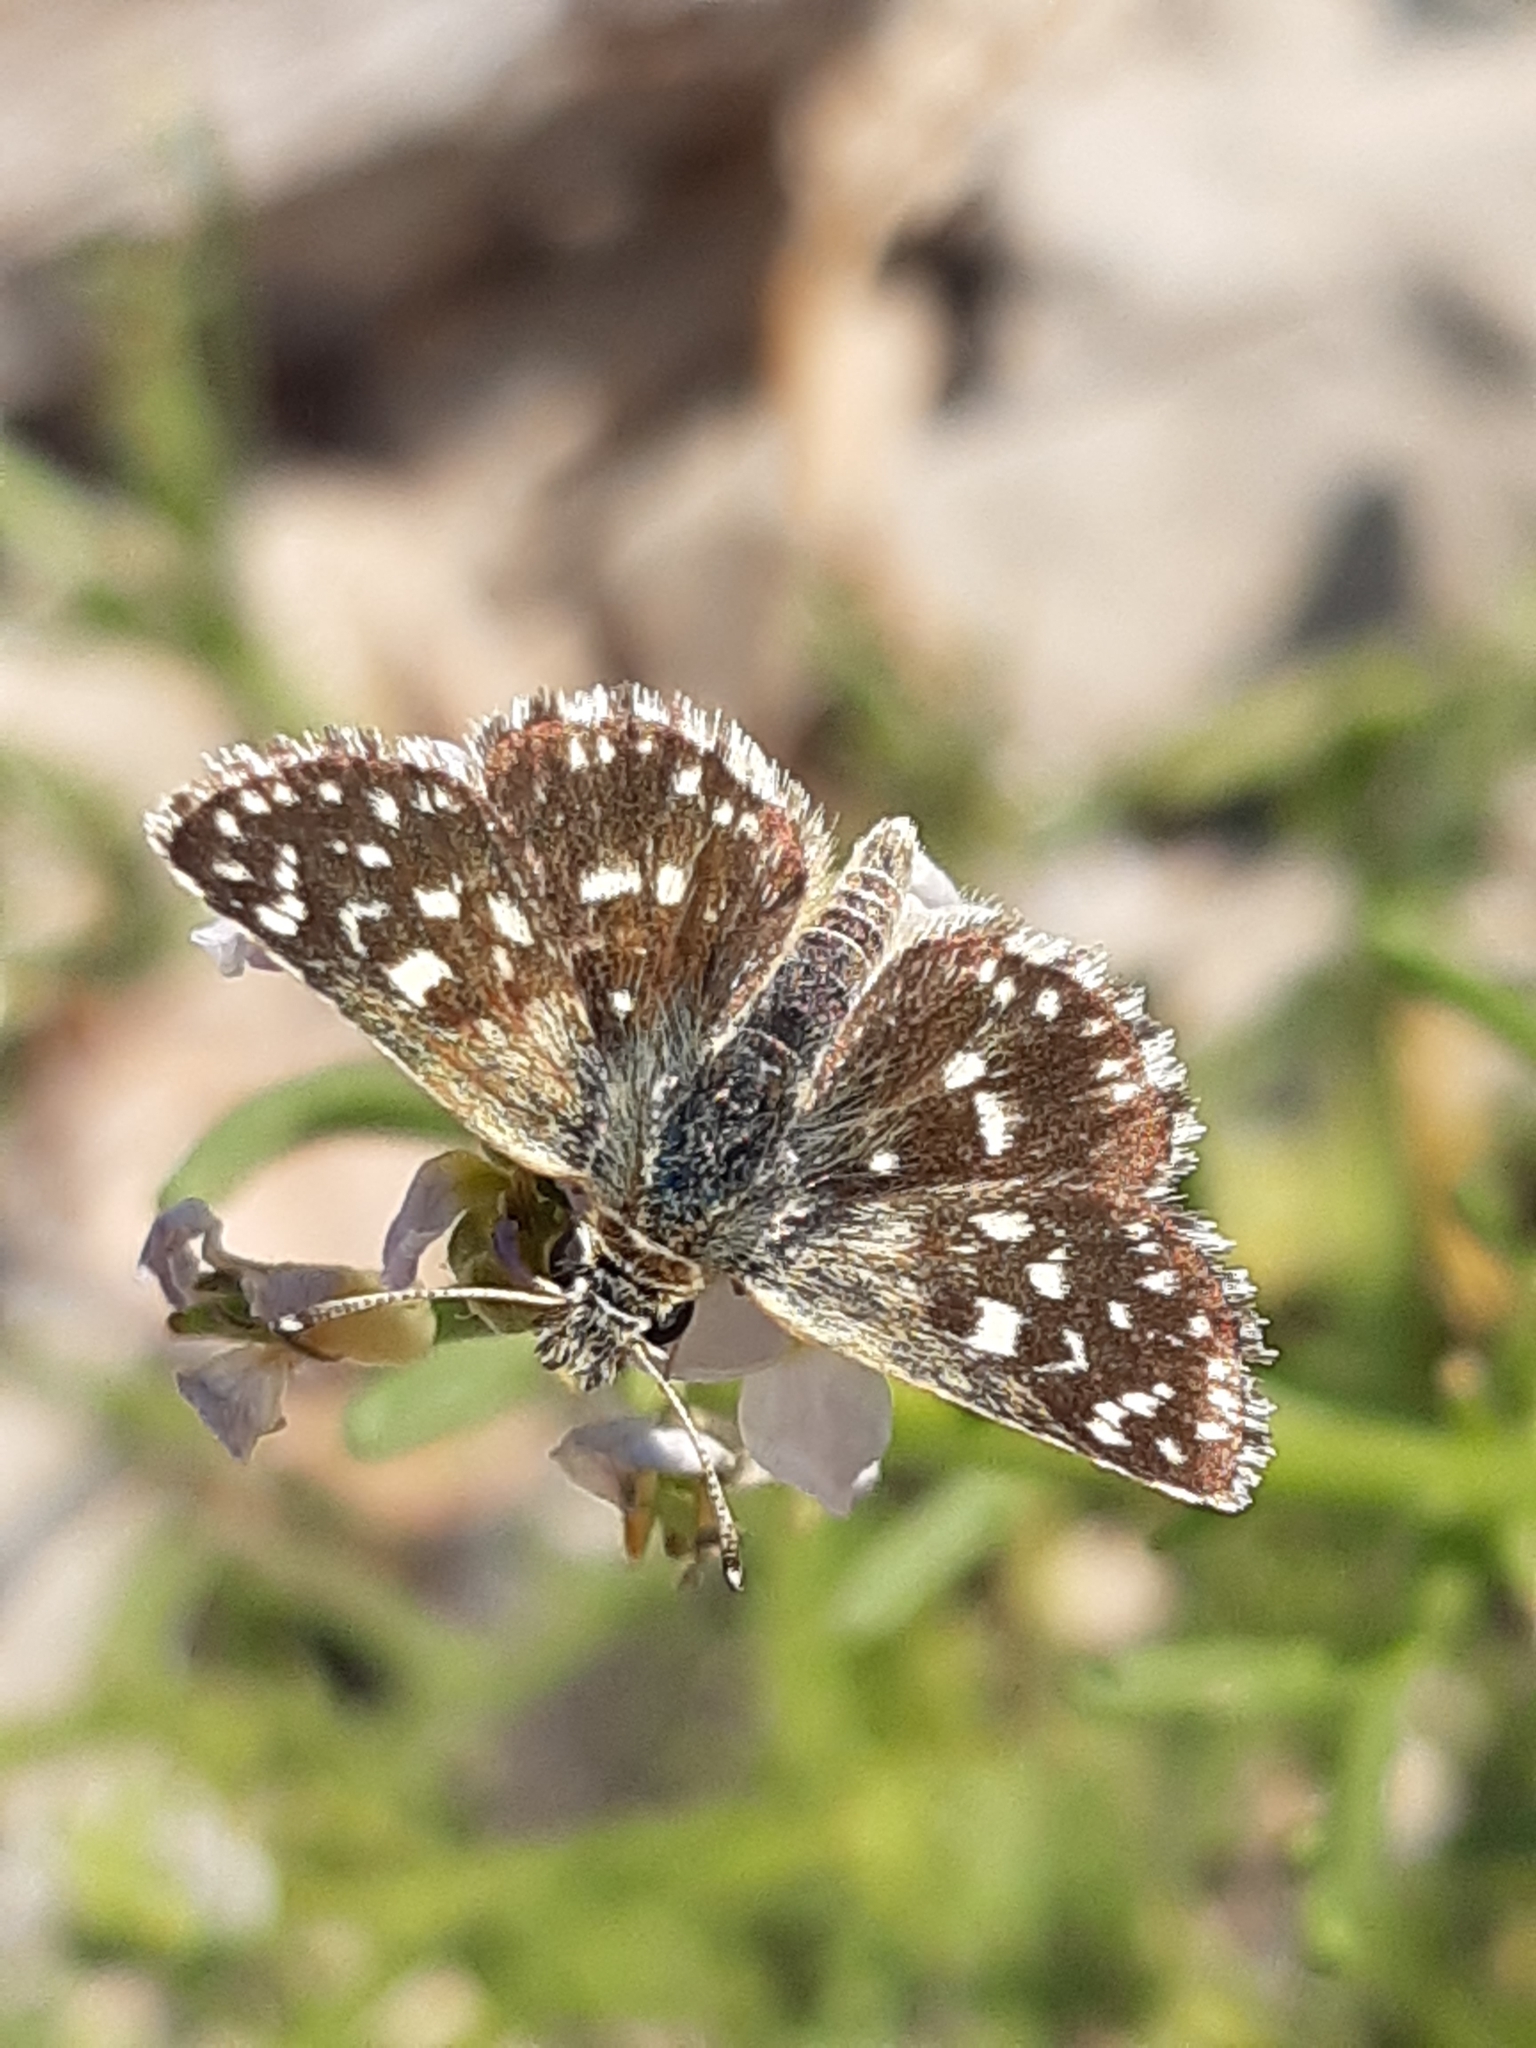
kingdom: Animalia
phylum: Arthropoda
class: Insecta
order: Lepidoptera
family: Hesperiidae
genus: Spialia
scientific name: Spialia sertorius
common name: Red underwing skipper
